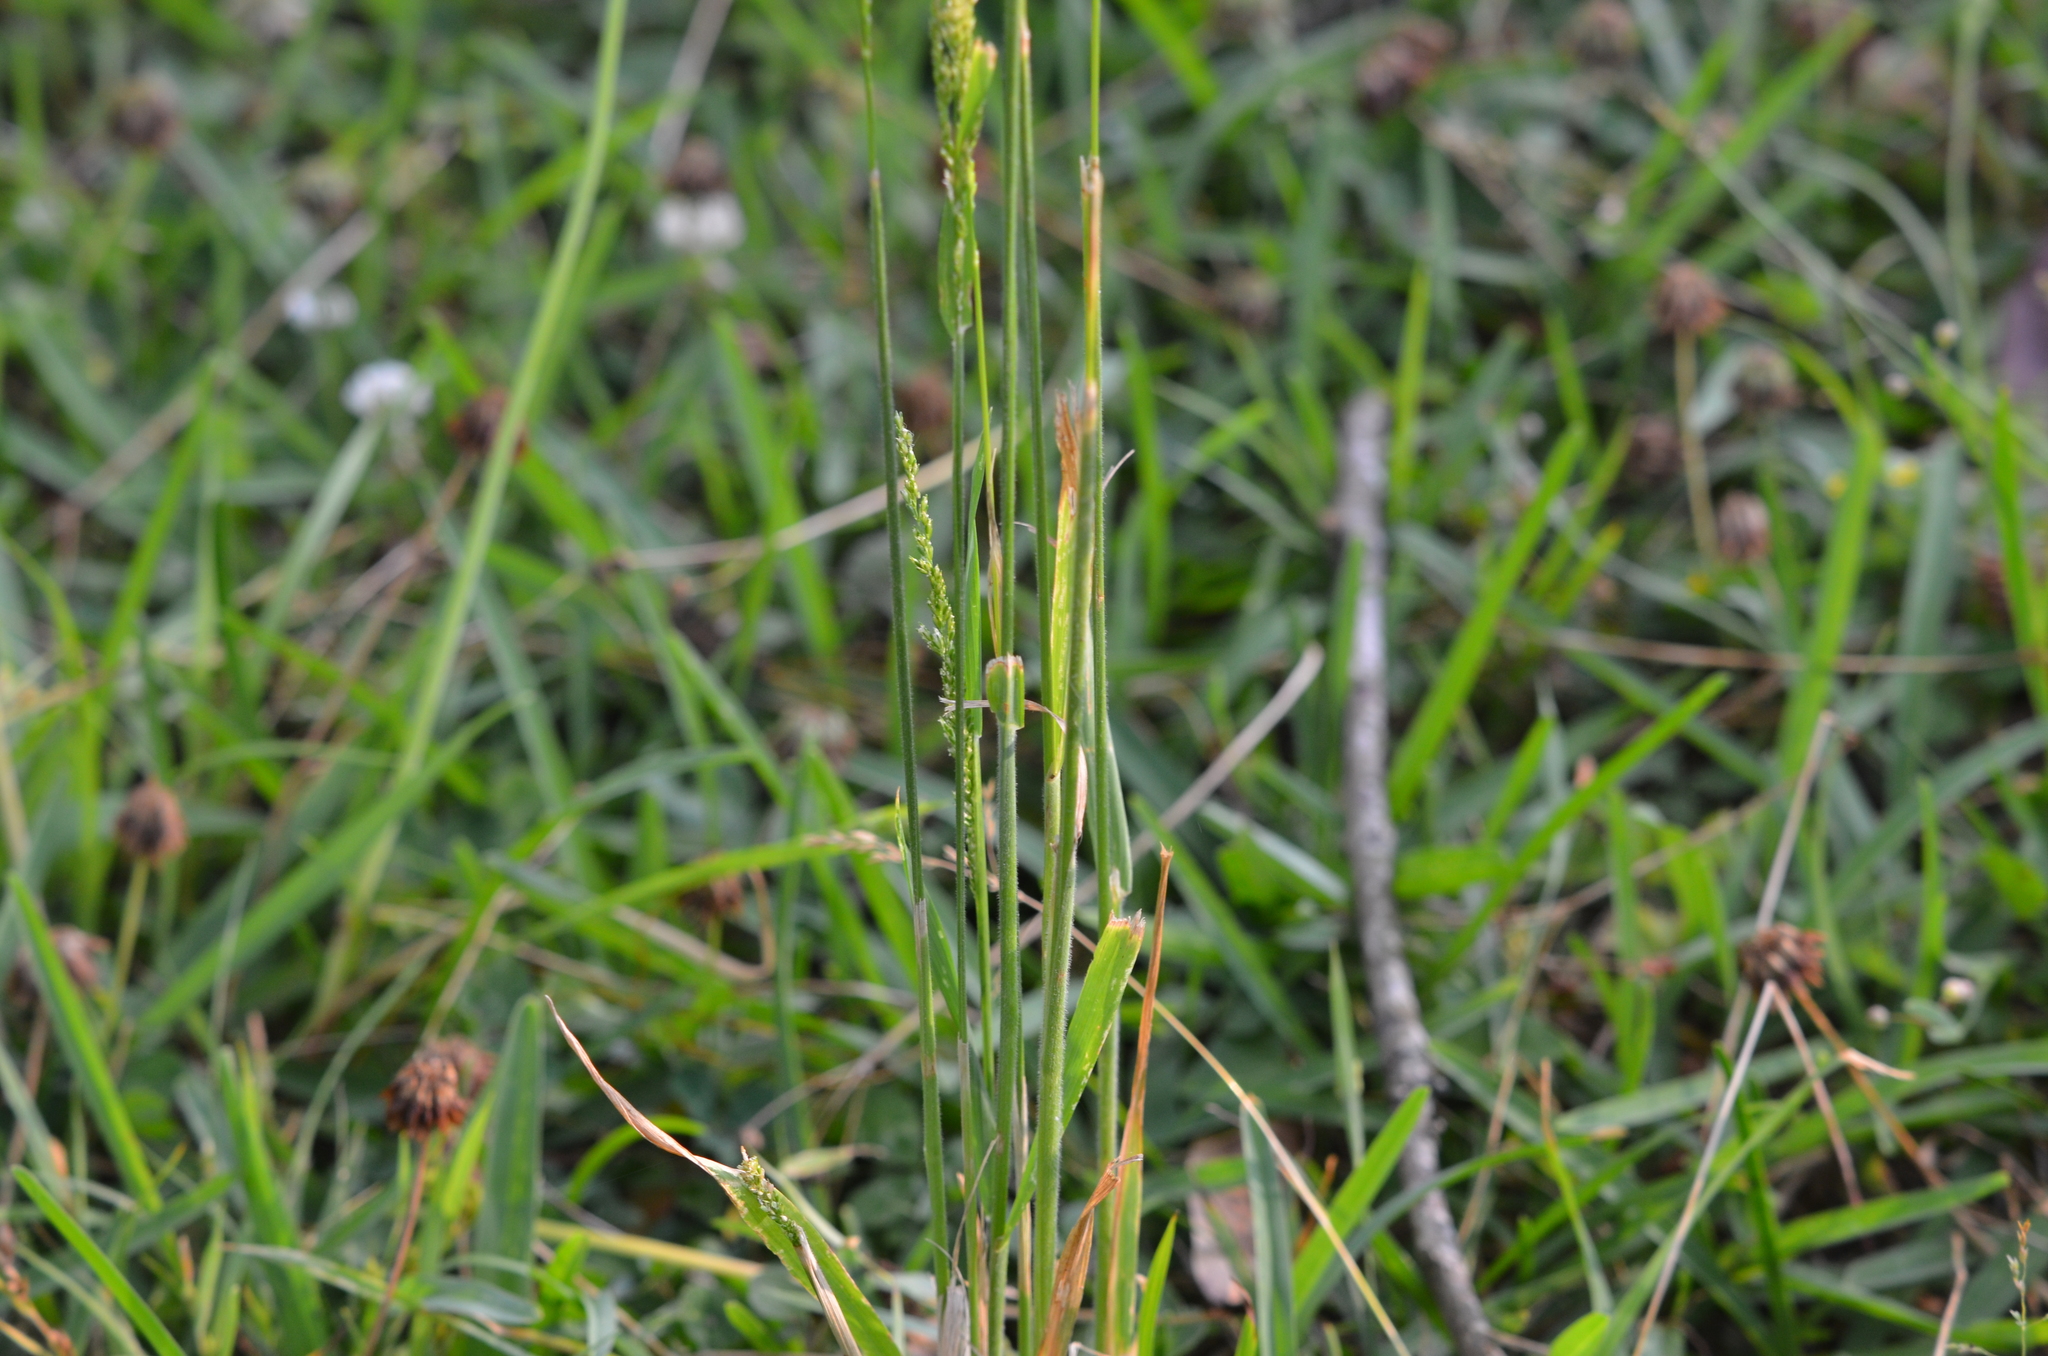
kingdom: Plantae
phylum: Tracheophyta
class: Liliopsida
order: Poales
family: Poaceae
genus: Sphenopholis
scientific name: Sphenopholis obtusata
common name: Prairie grass
